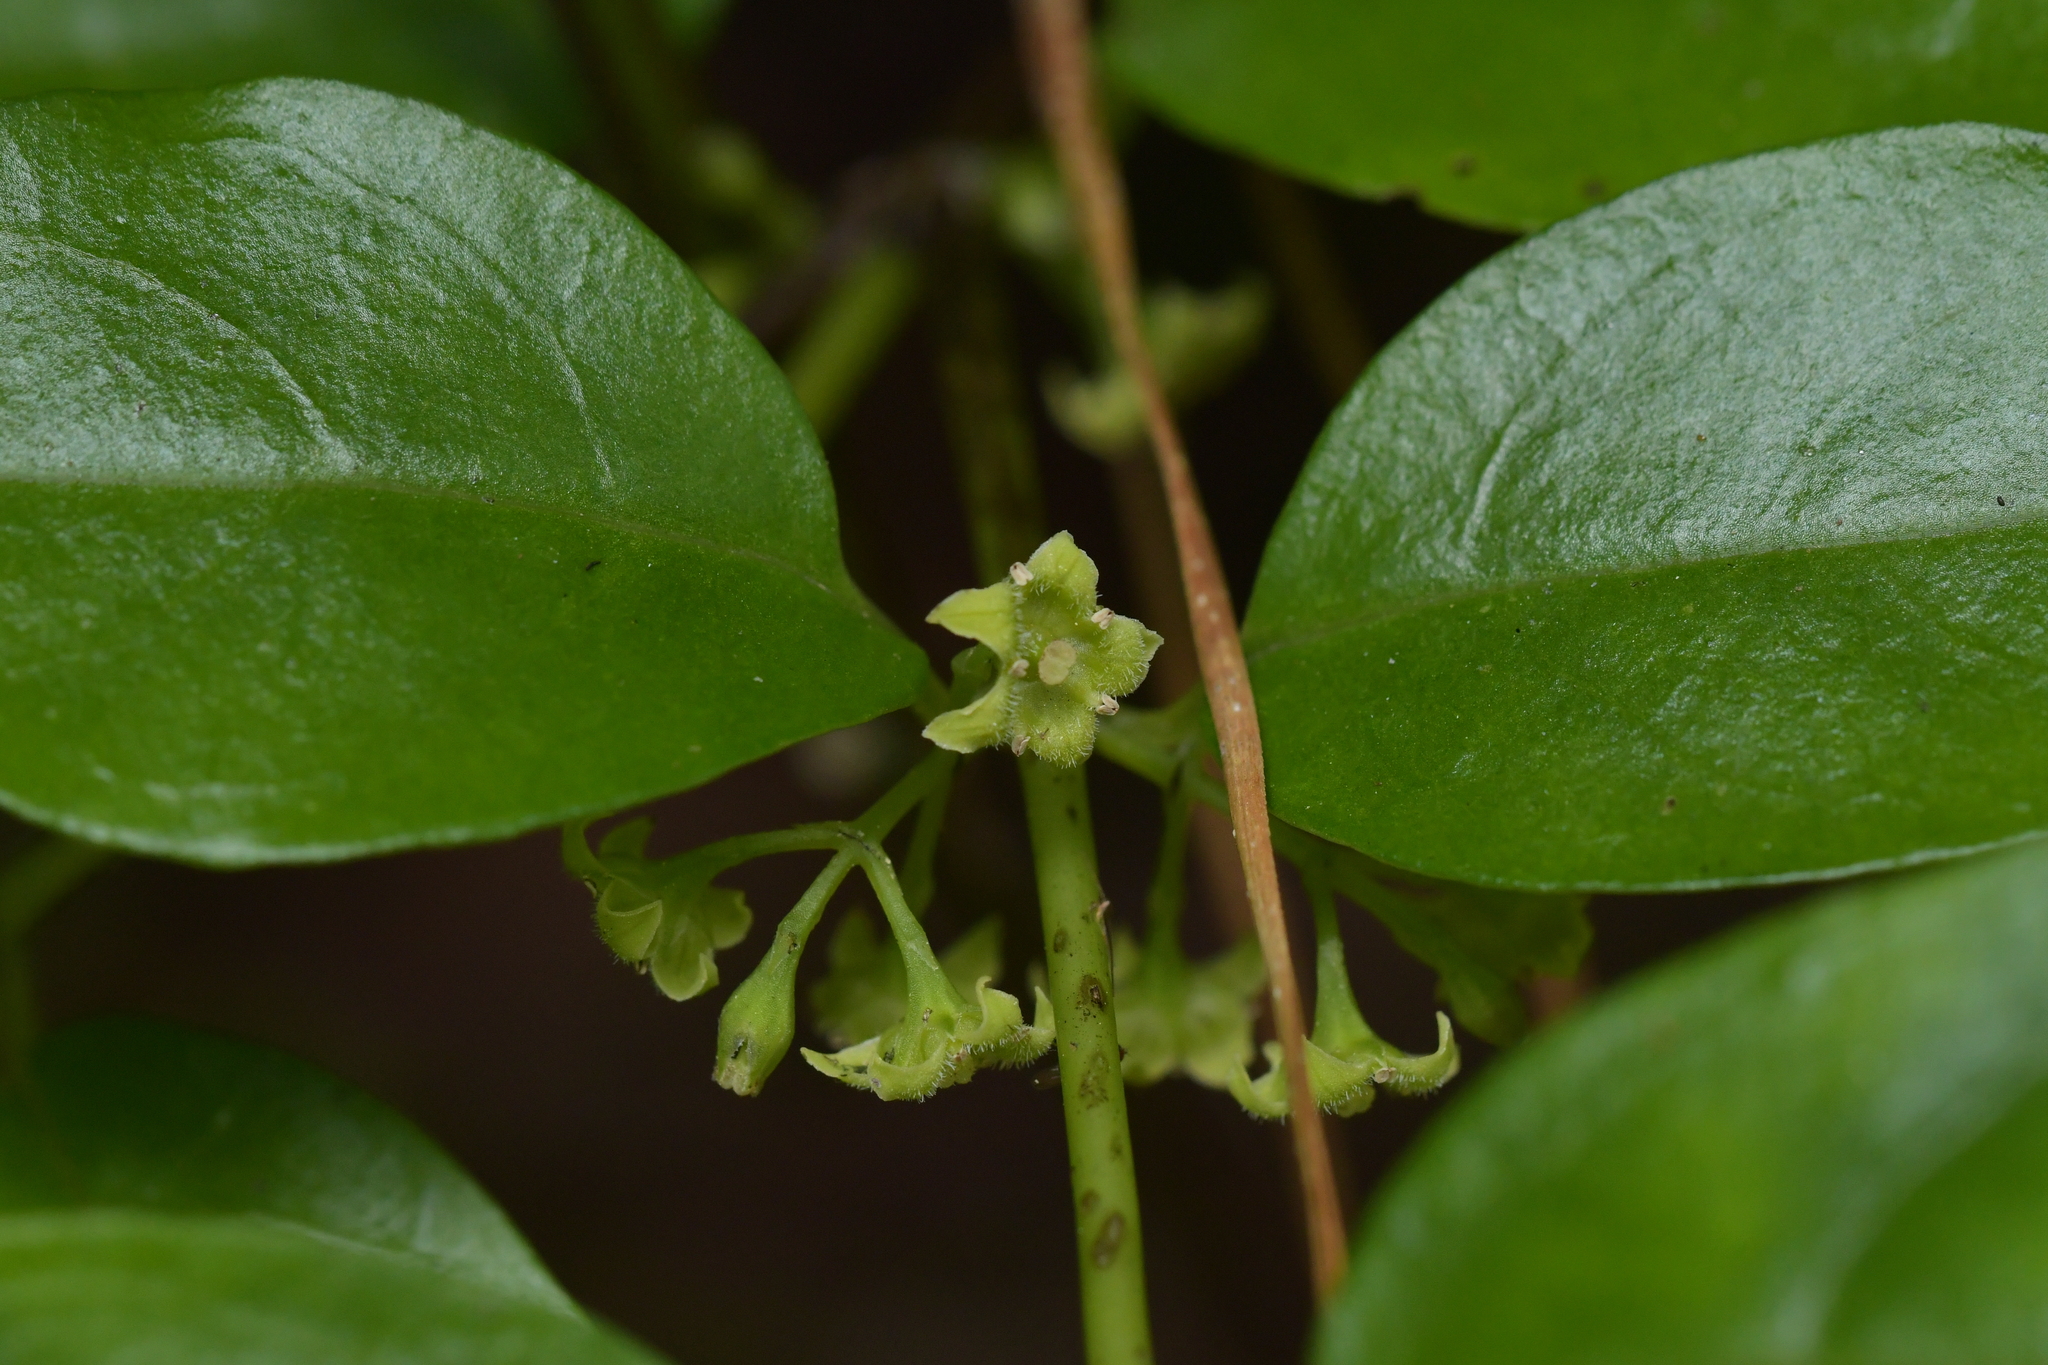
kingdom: Plantae
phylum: Tracheophyta
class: Magnoliopsida
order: Gentianales
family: Loganiaceae
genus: Geniostoma
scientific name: Geniostoma ligustrifolium
